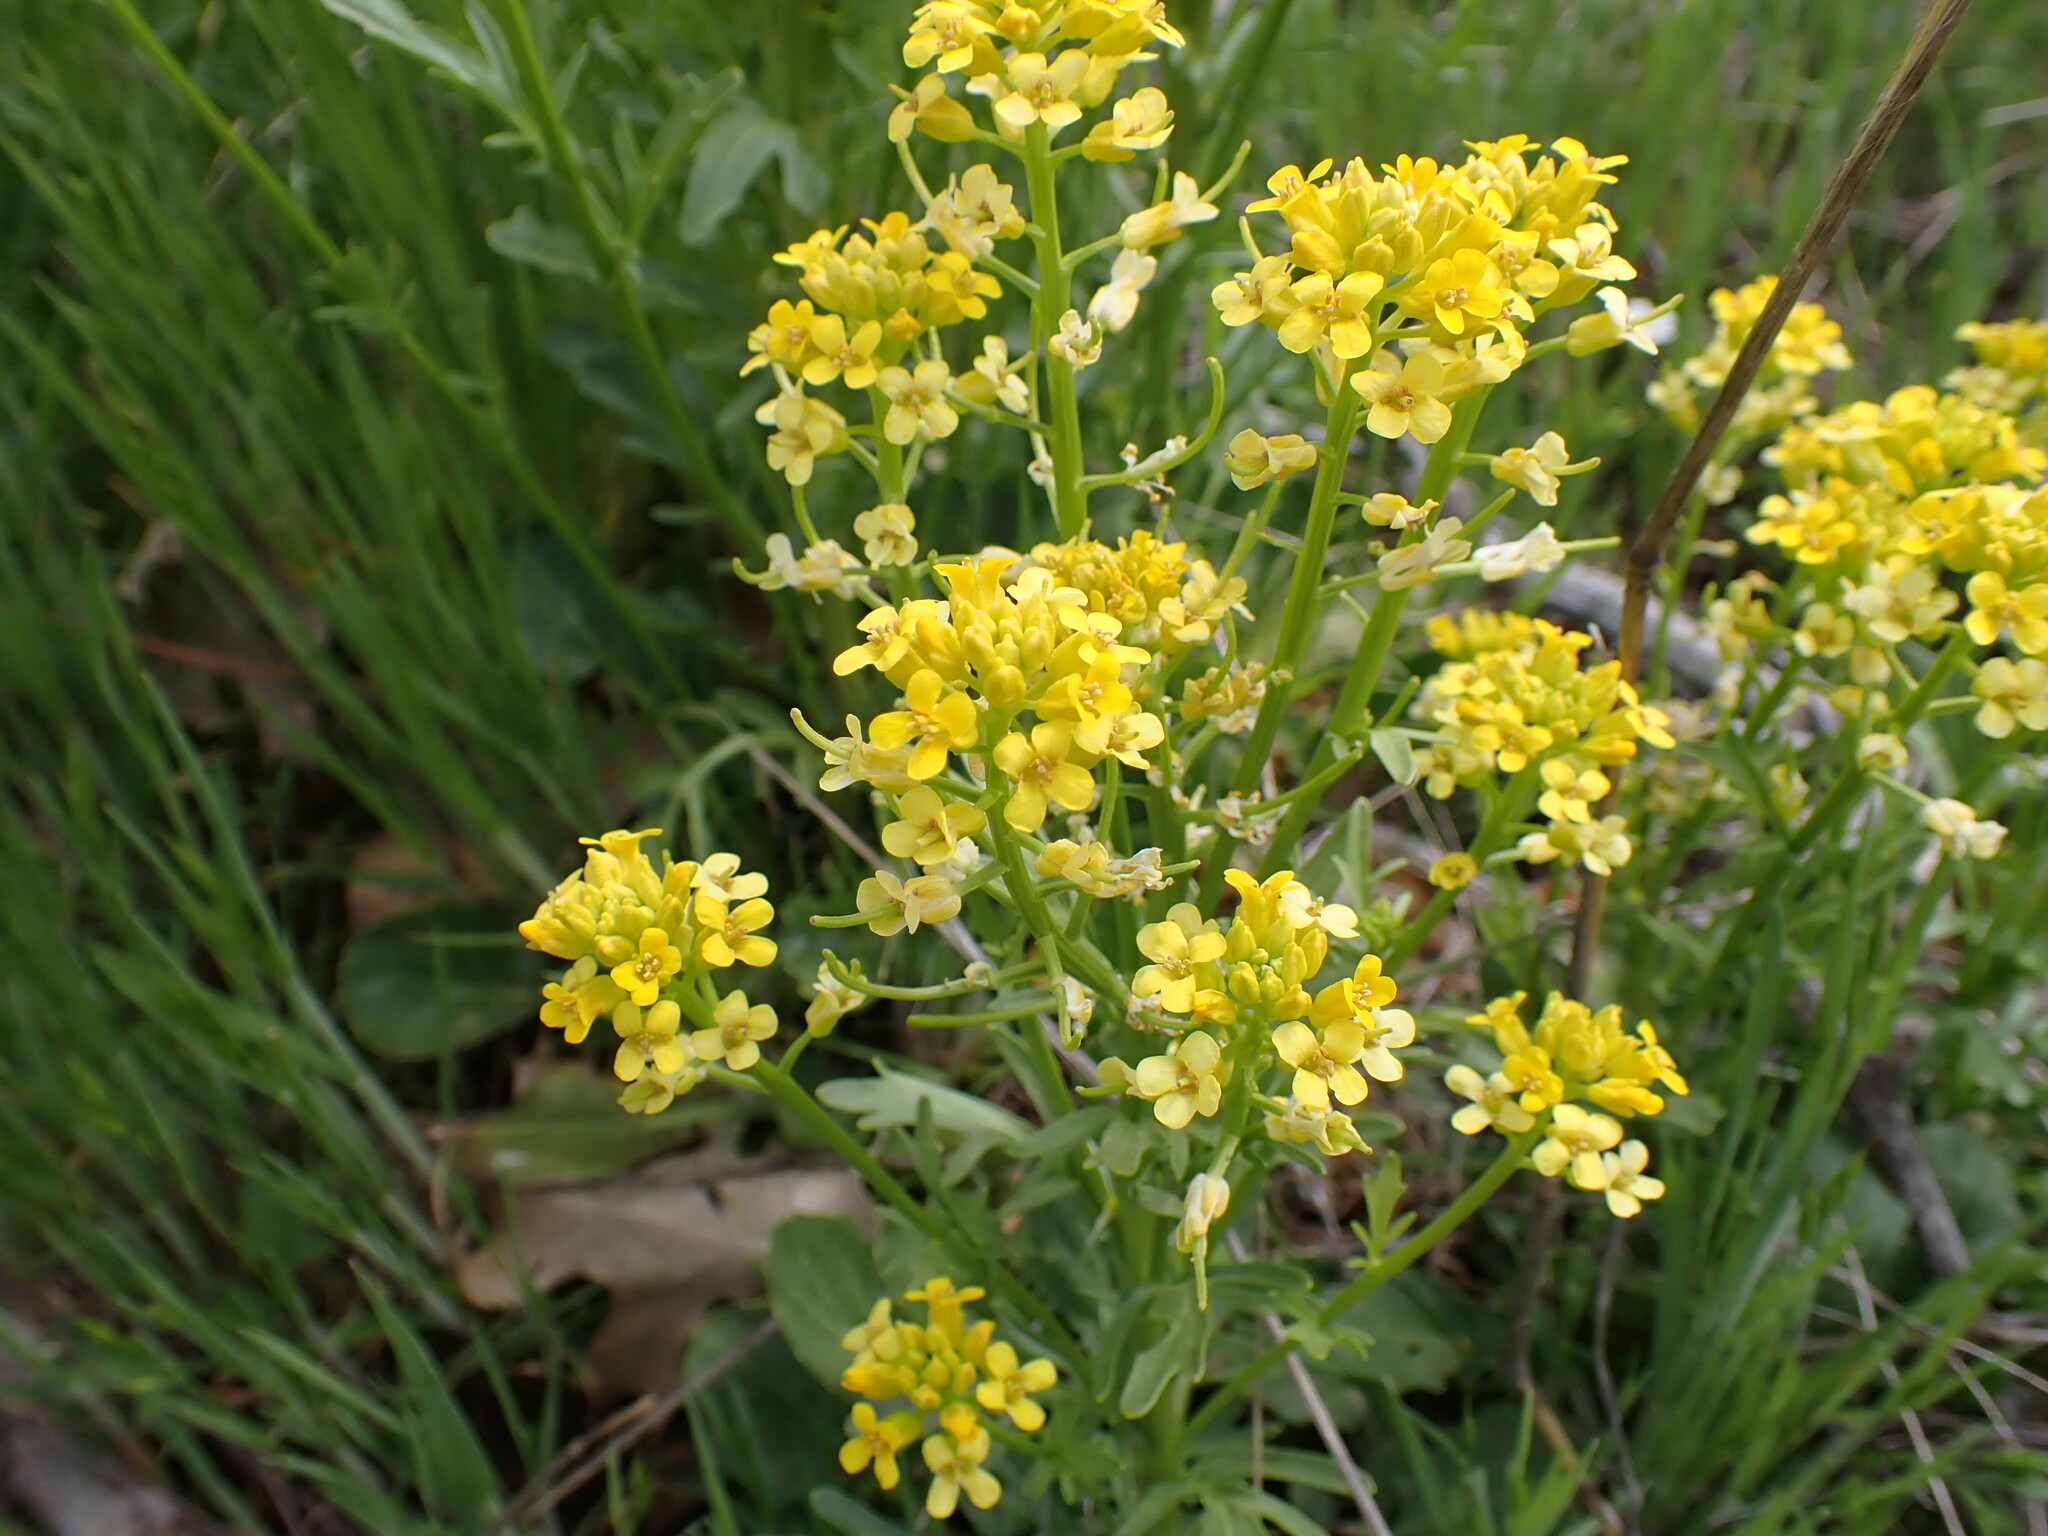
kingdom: Plantae
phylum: Tracheophyta
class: Magnoliopsida
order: Brassicales
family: Brassicaceae
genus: Barbarea
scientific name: Barbarea orthoceras
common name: American wintercress
